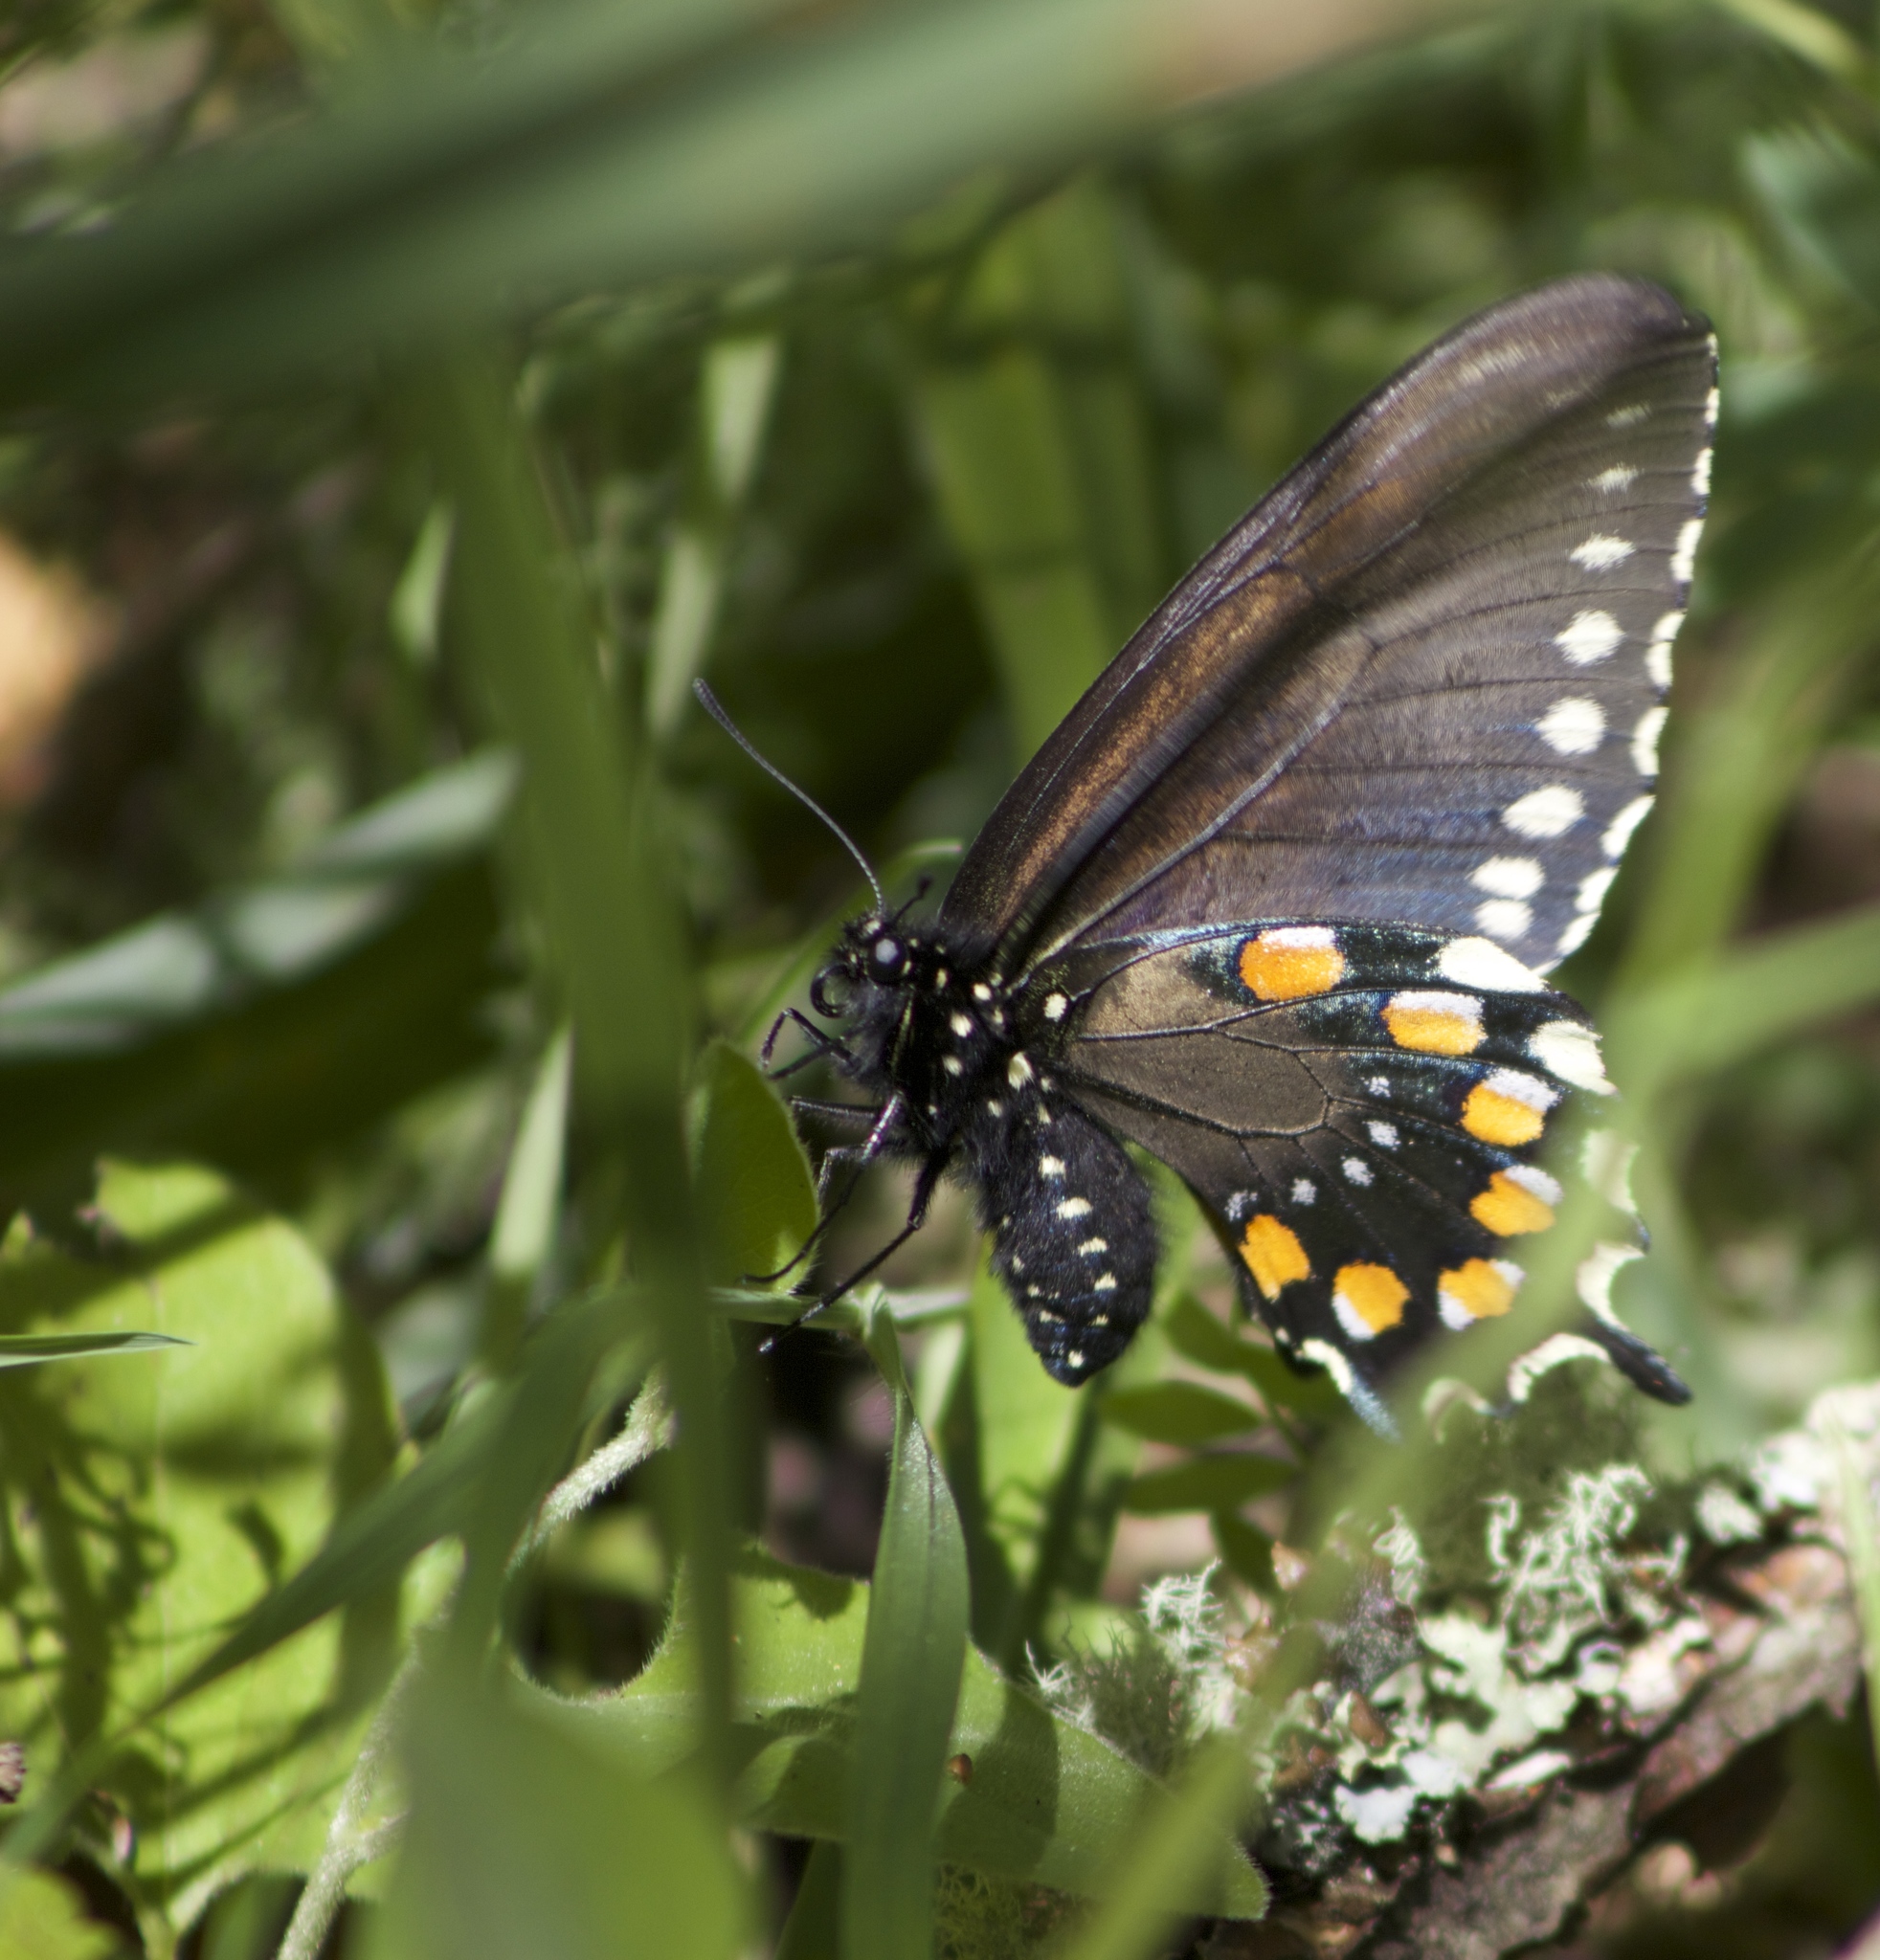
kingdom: Animalia
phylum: Arthropoda
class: Insecta
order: Lepidoptera
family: Papilionidae
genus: Battus
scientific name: Battus philenor
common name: Pipevine swallowtail
